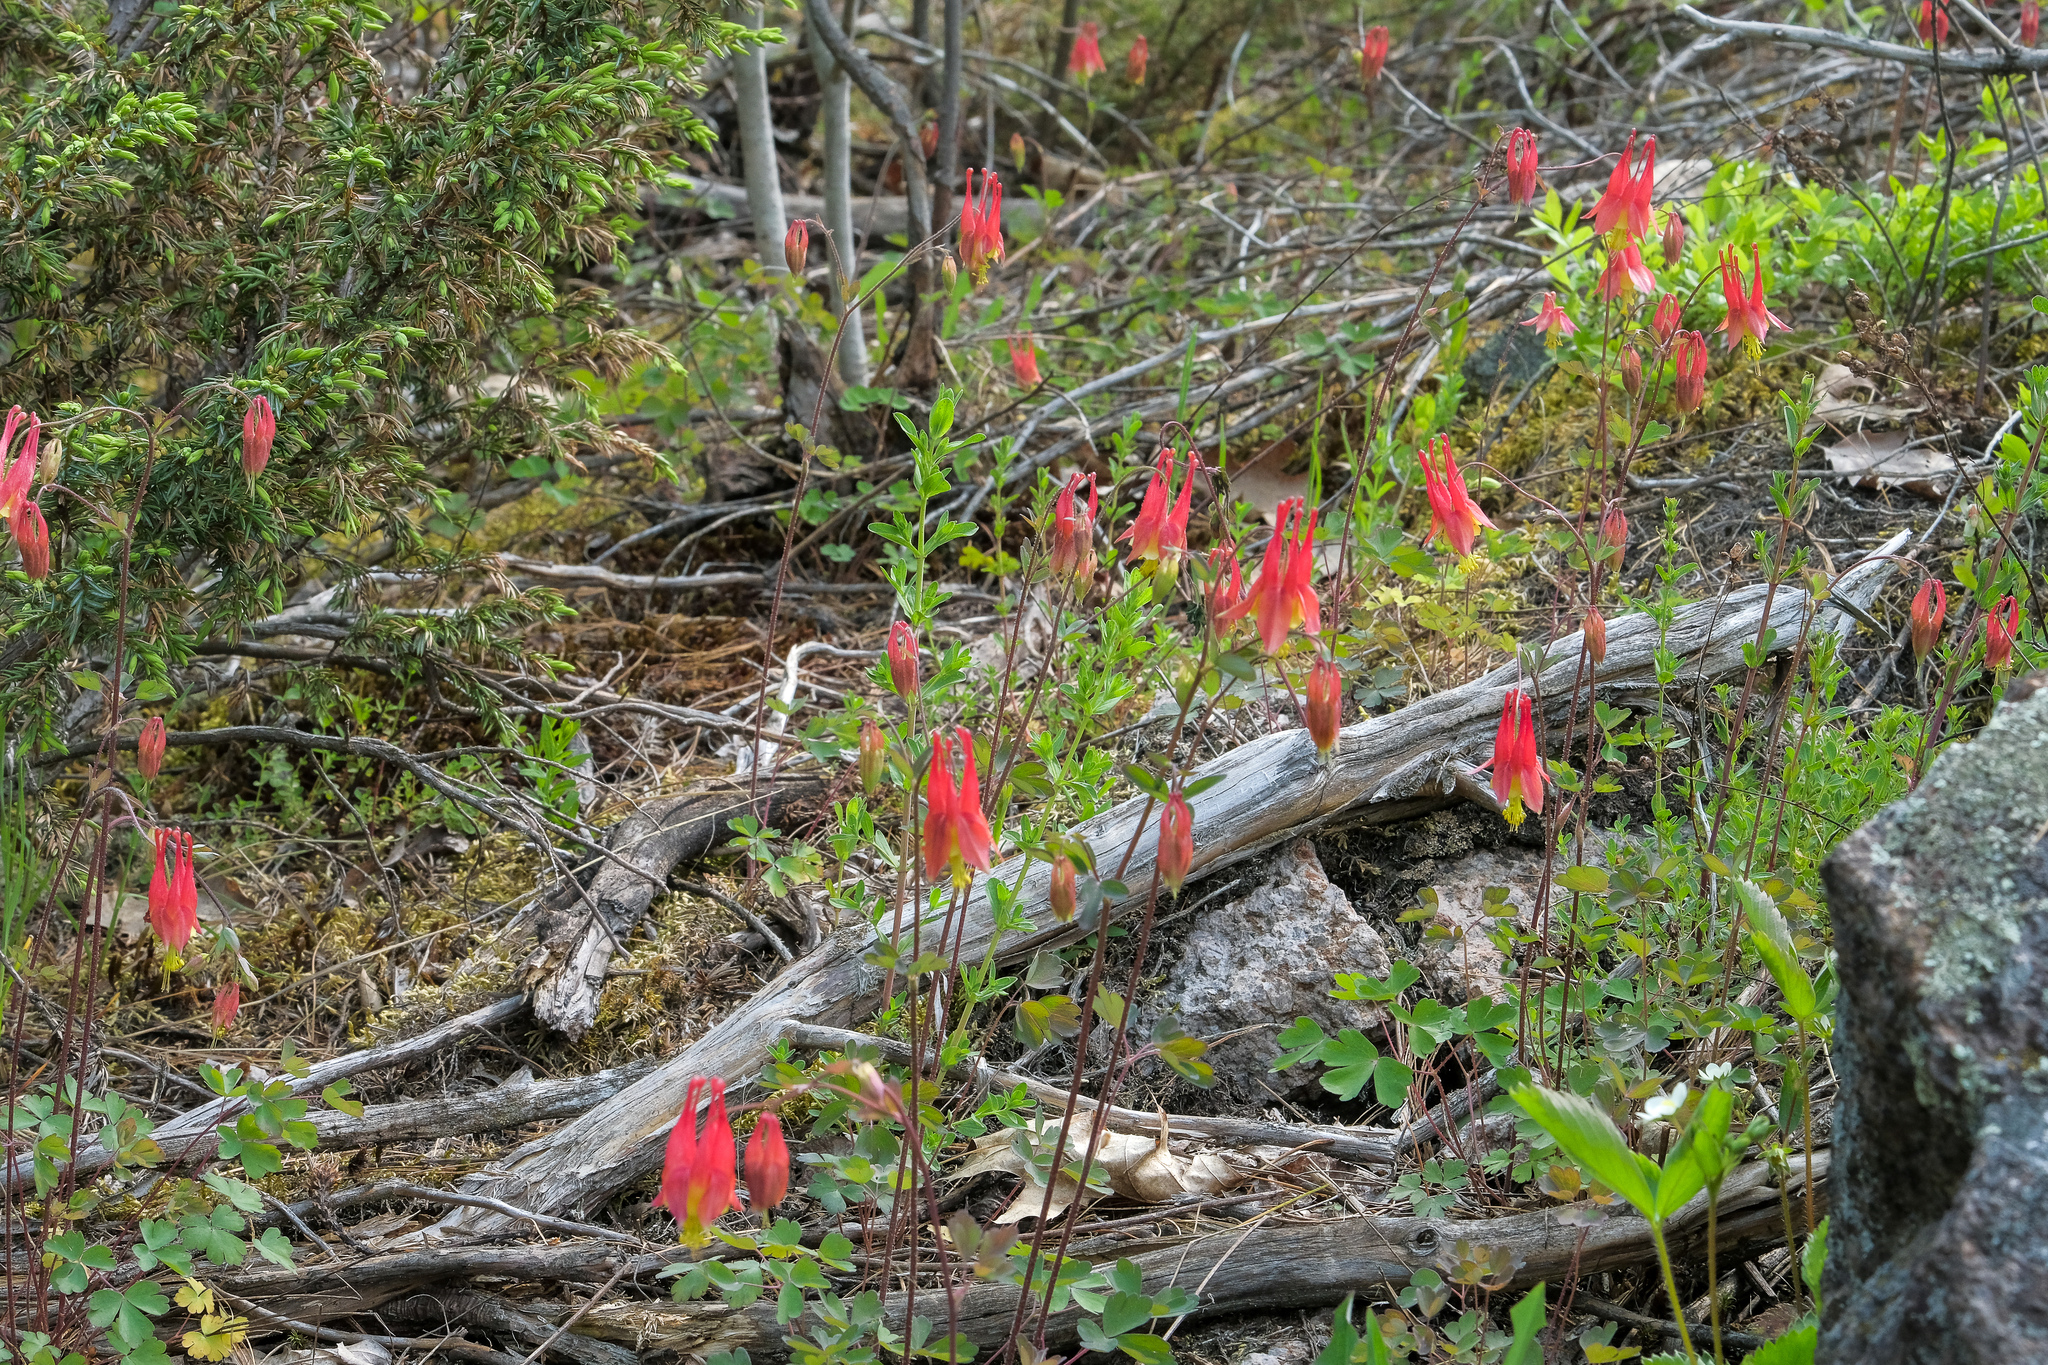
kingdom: Plantae
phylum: Tracheophyta
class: Magnoliopsida
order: Ranunculales
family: Ranunculaceae
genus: Aquilegia
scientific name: Aquilegia canadensis
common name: American columbine
